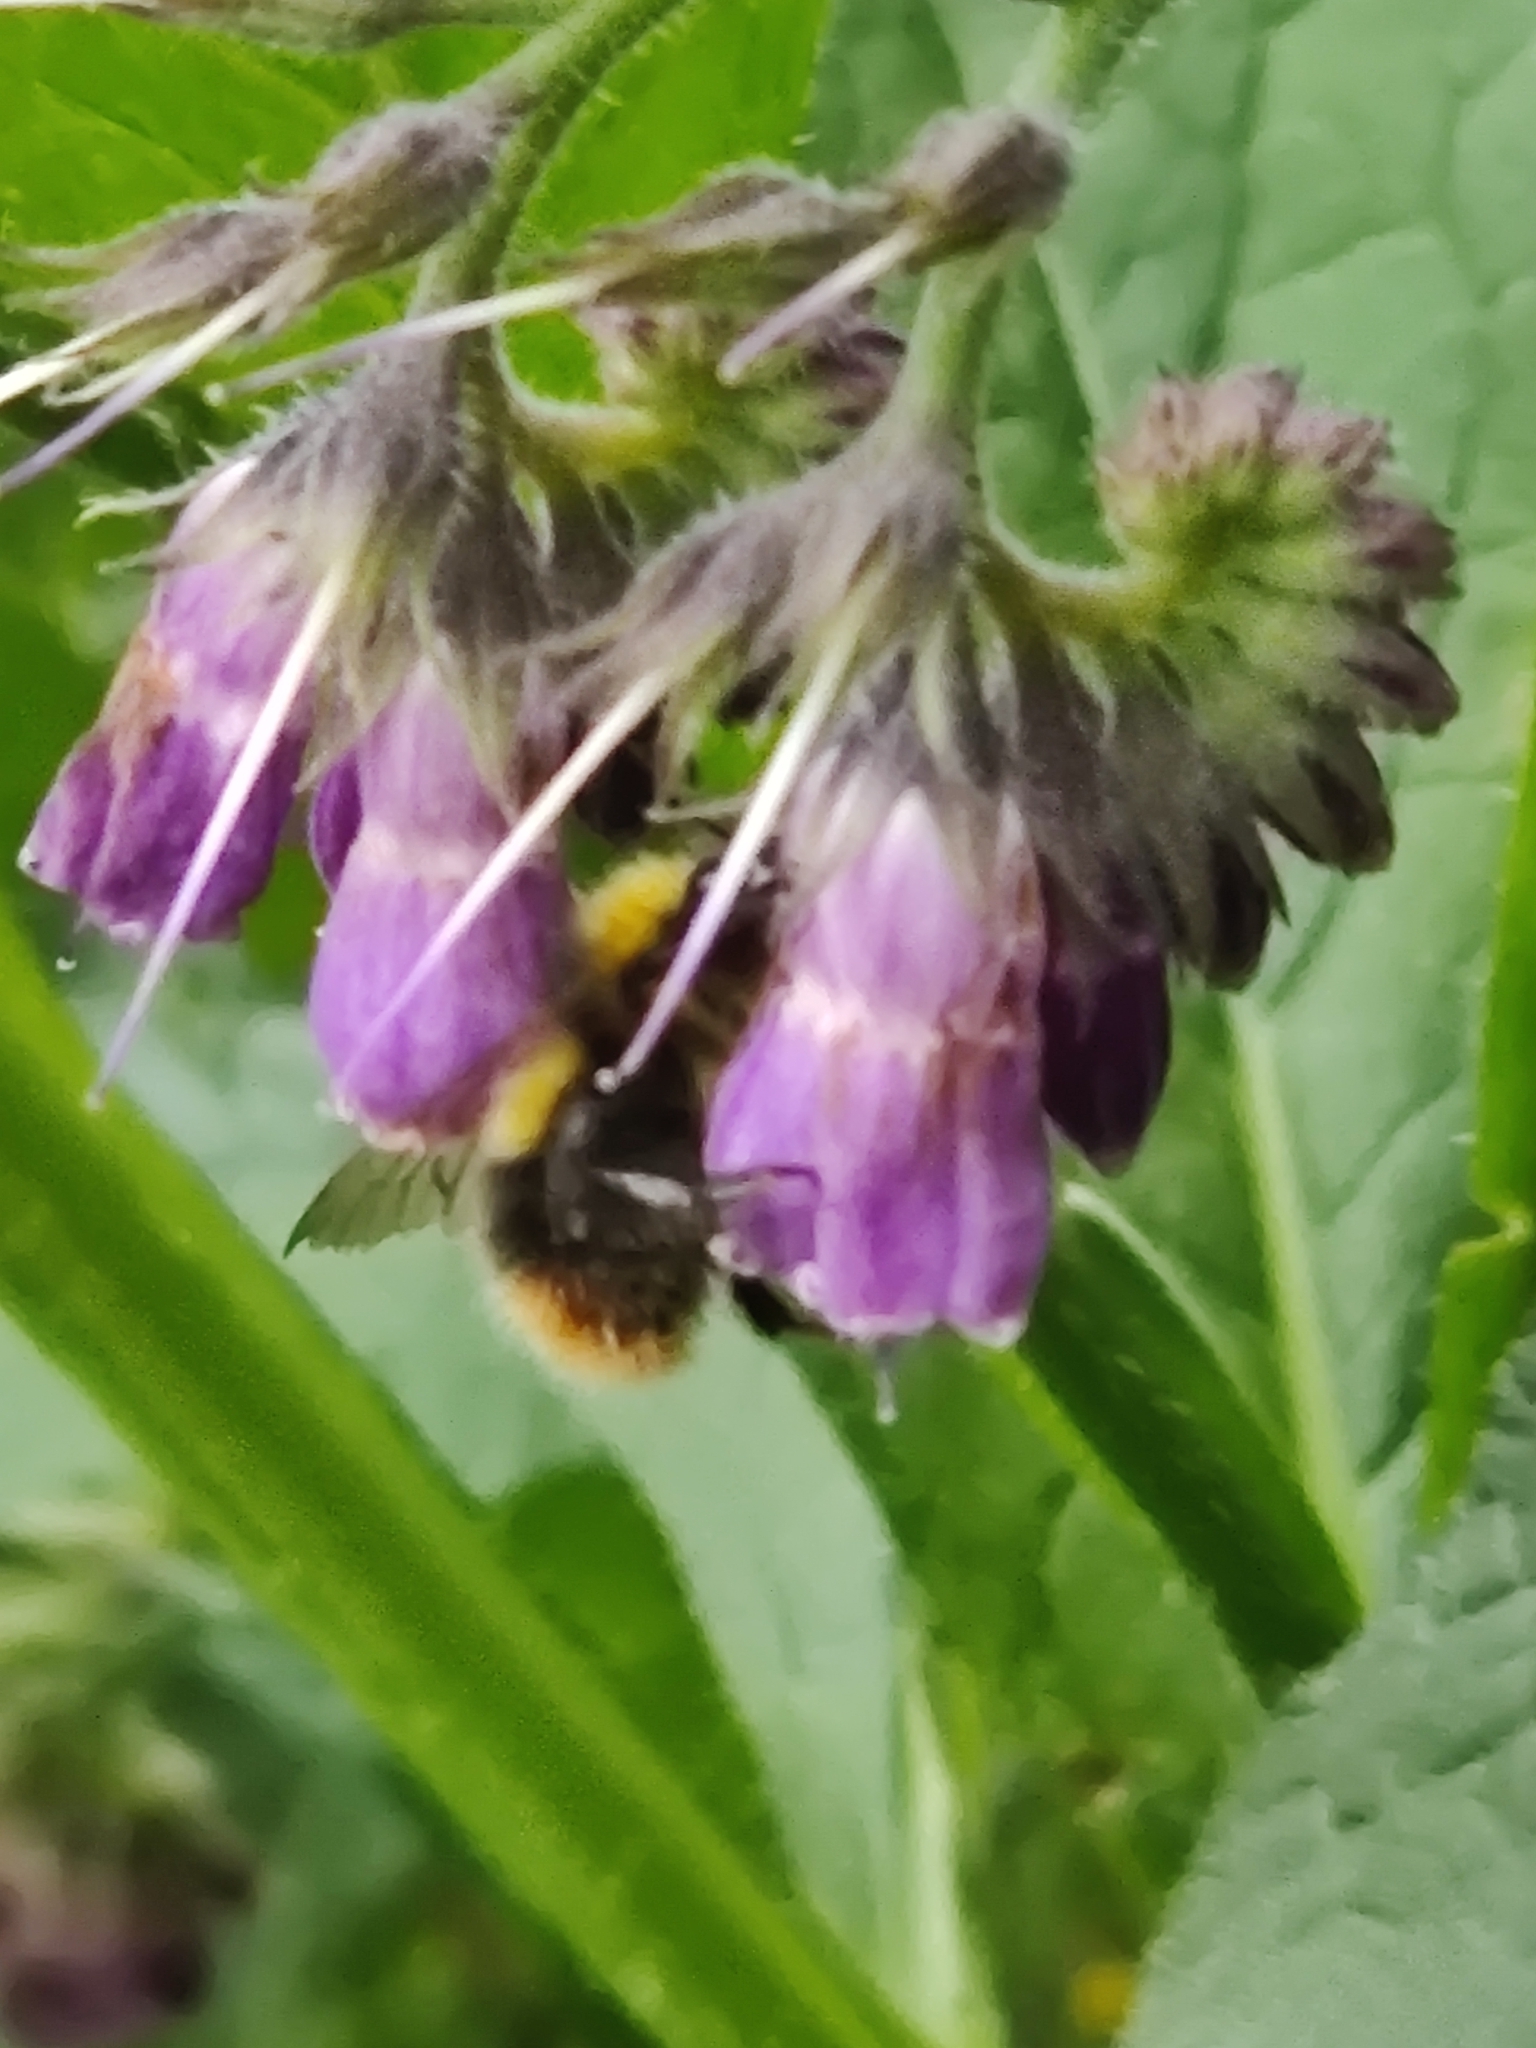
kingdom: Animalia
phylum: Arthropoda
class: Insecta
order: Hymenoptera
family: Apidae
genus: Bombus
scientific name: Bombus pratorum
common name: Early humble-bee
